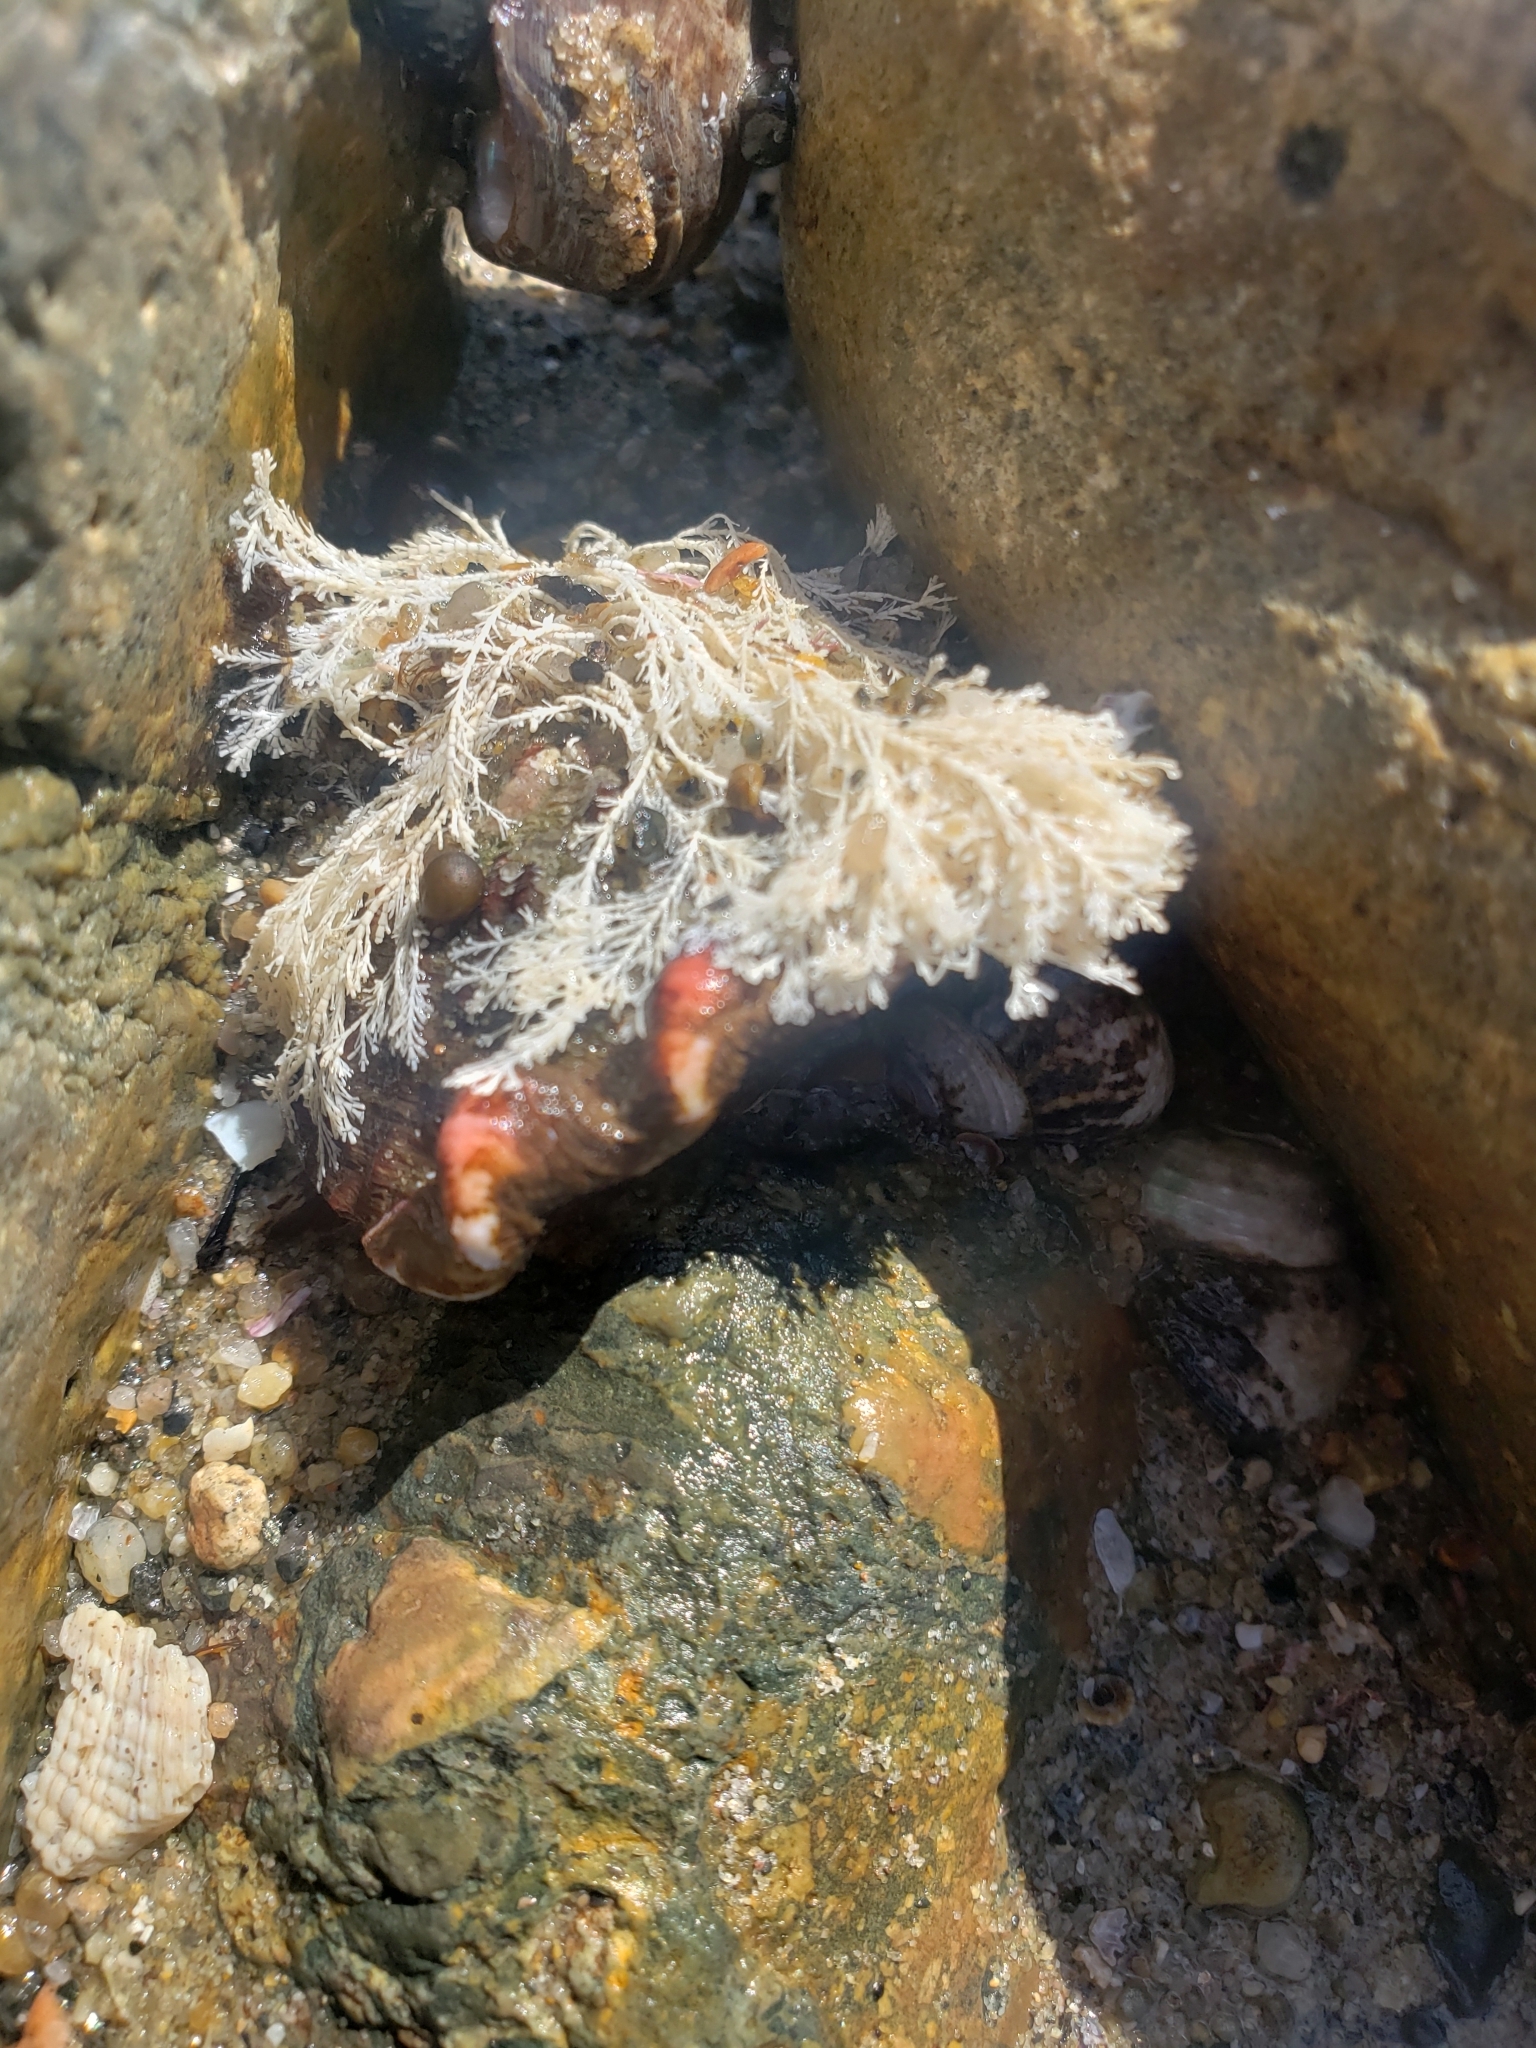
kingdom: Animalia
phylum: Mollusca
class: Gastropoda
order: Trochida
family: Turbinidae
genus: Megastraea
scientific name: Megastraea undosa
